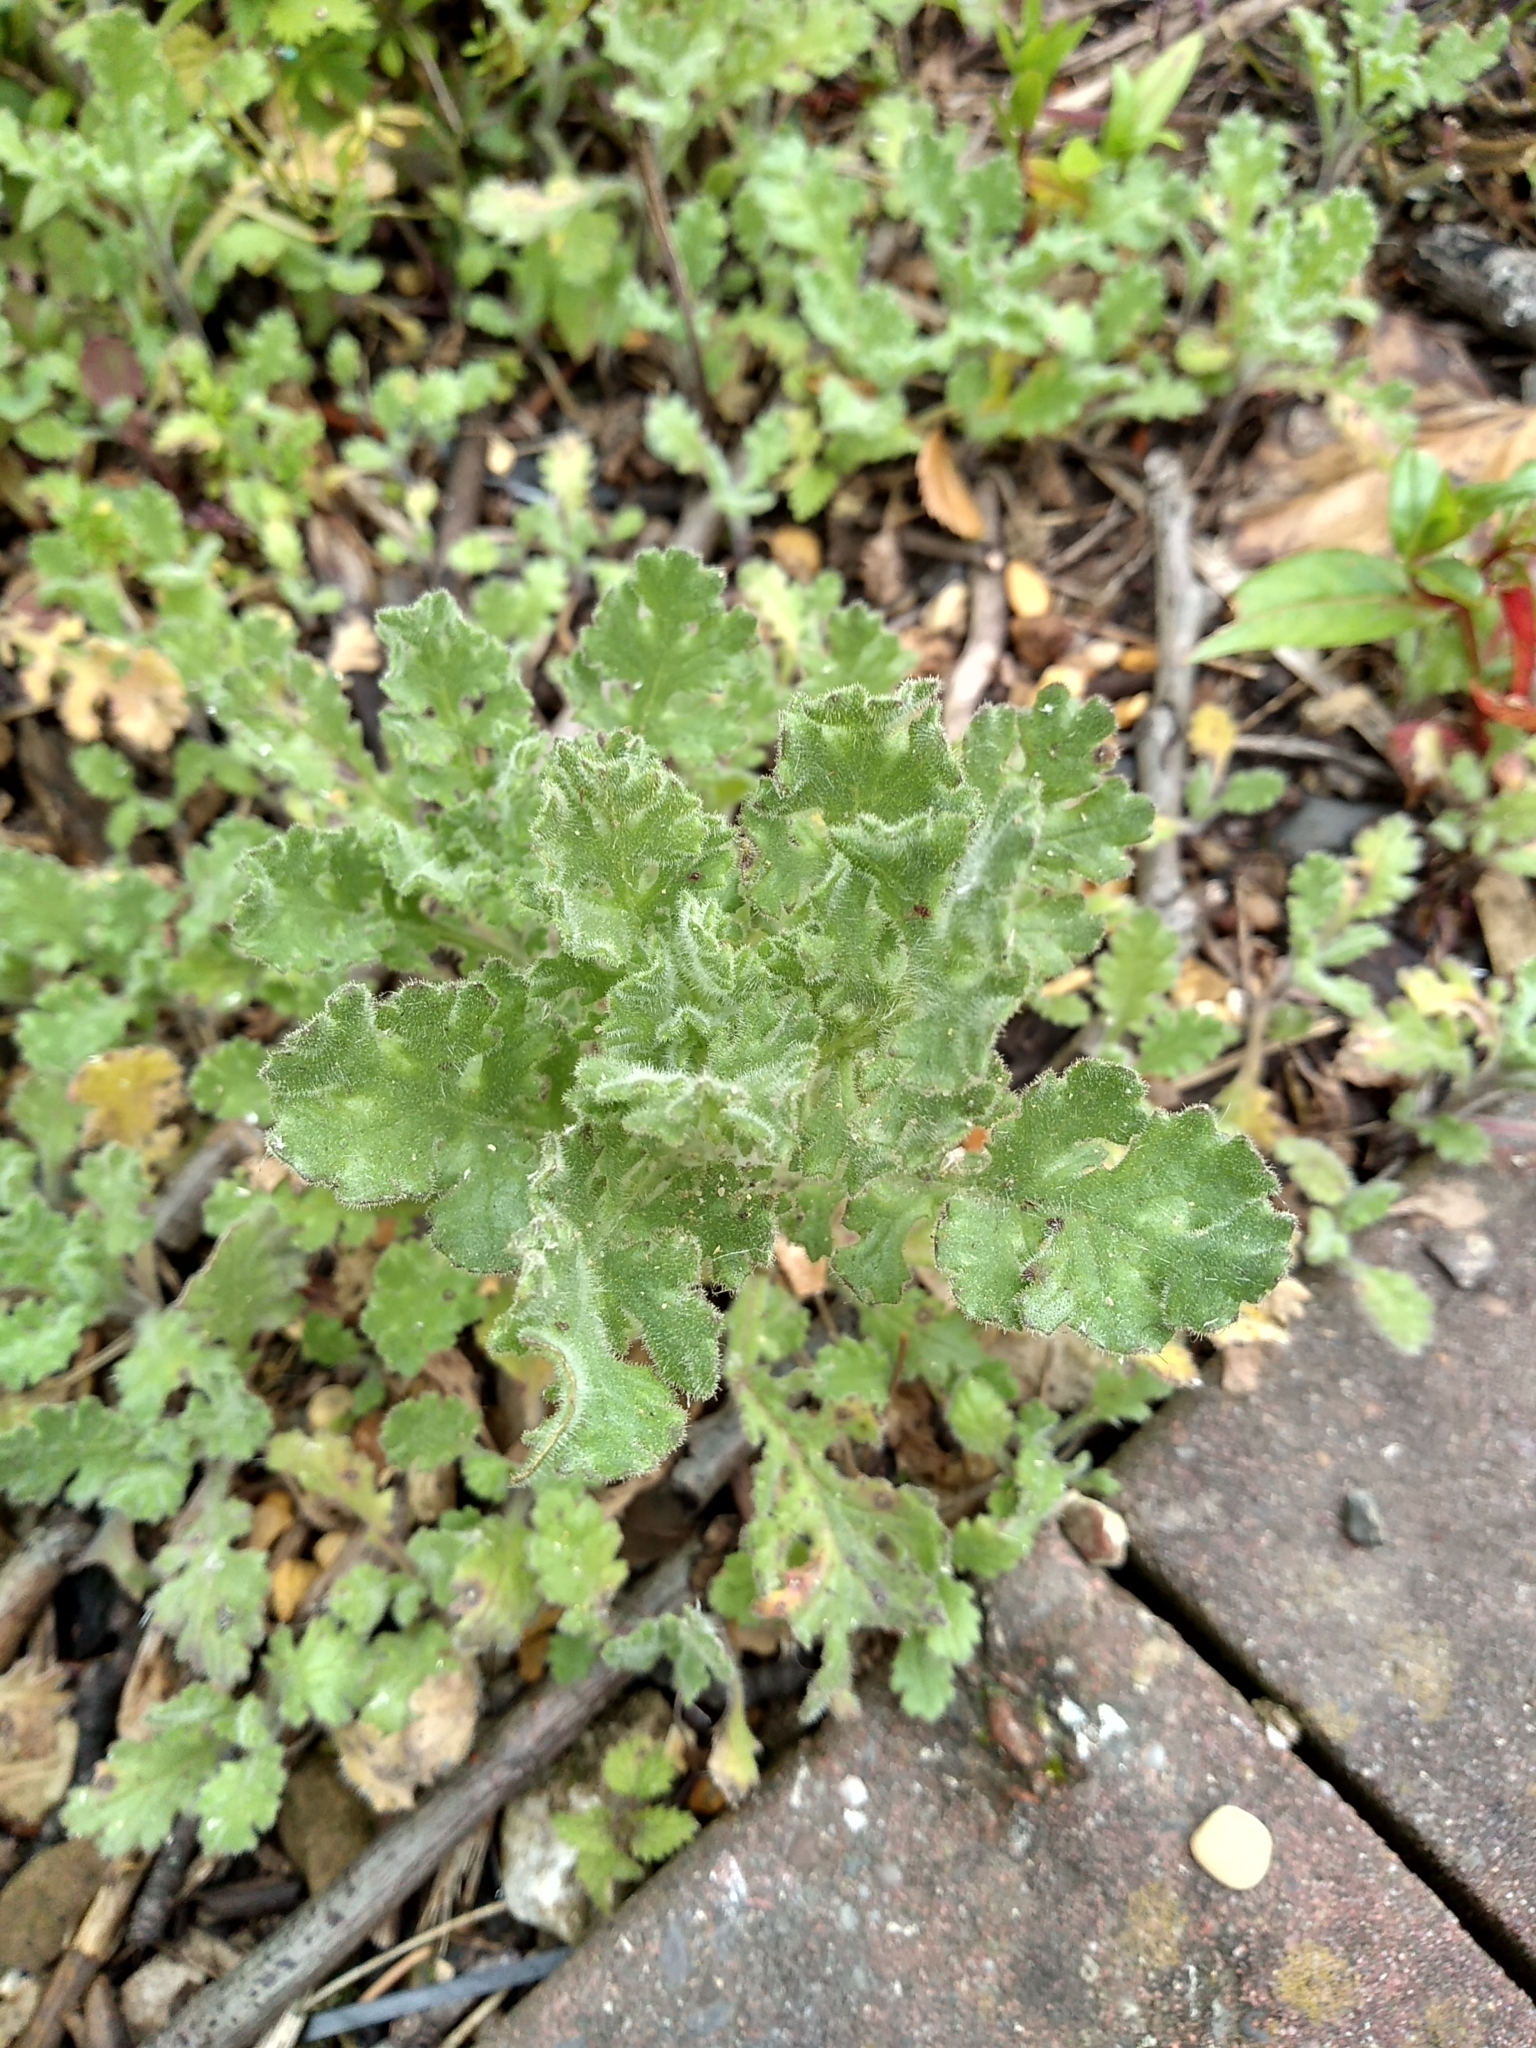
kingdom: Plantae
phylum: Tracheophyta
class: Magnoliopsida
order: Asterales
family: Asteraceae
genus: Senecio
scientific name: Senecio viscosus
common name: Sticky groundsel
